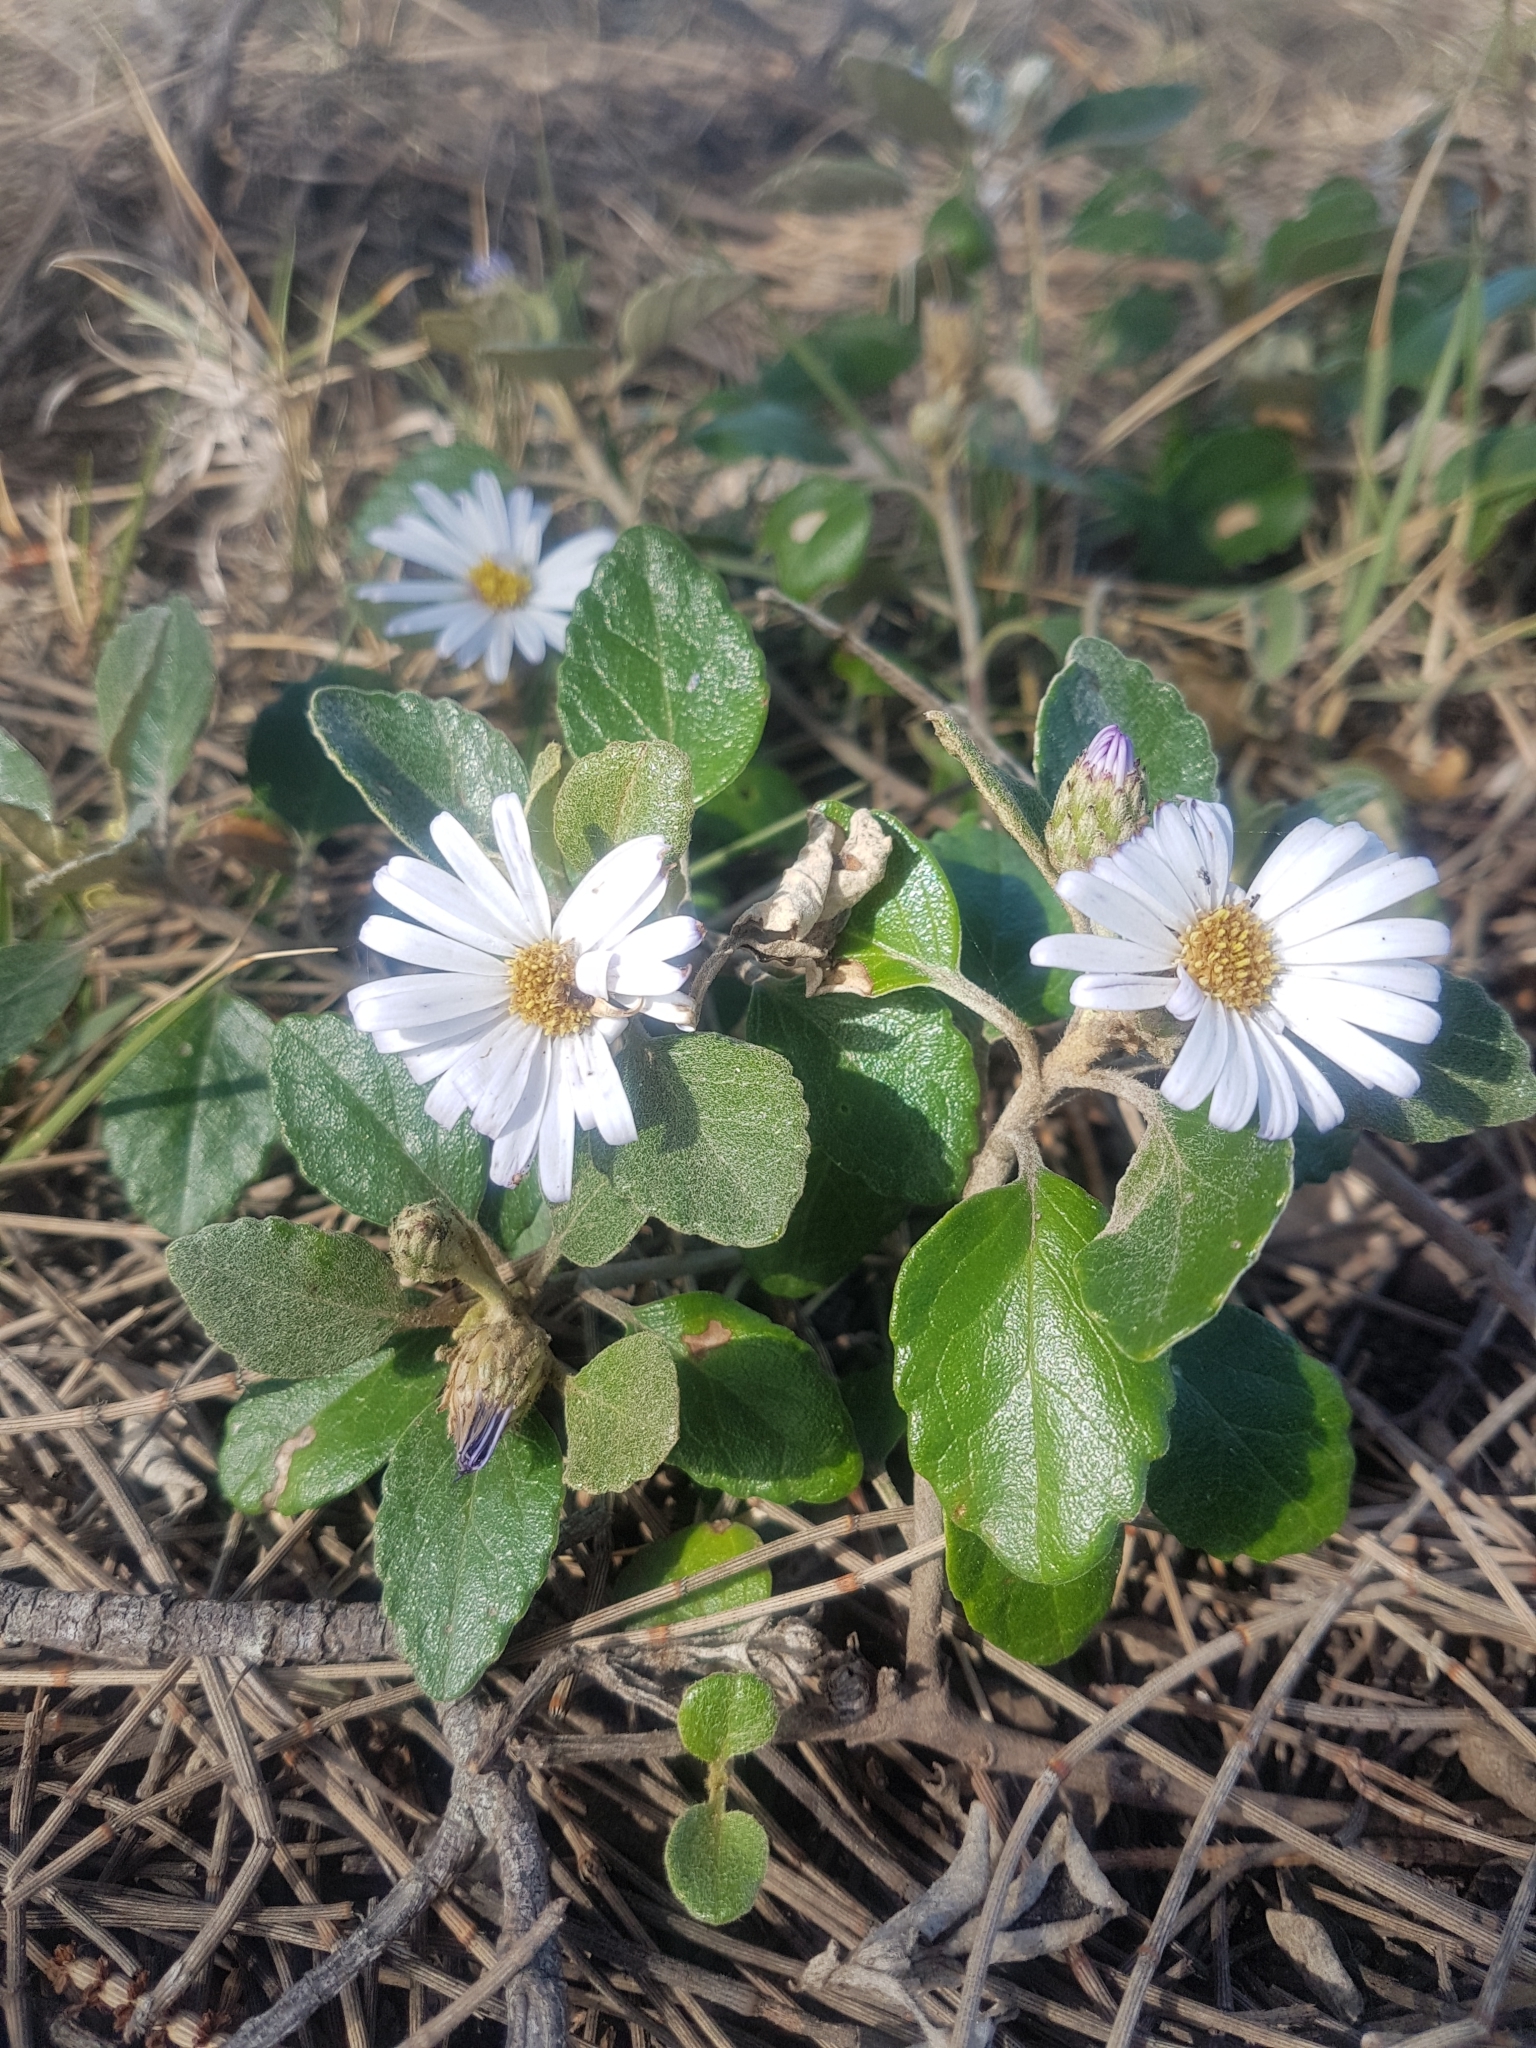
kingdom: Plantae
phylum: Tracheophyta
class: Magnoliopsida
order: Asterales
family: Asteraceae
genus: Olearia
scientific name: Olearia tomentosa
